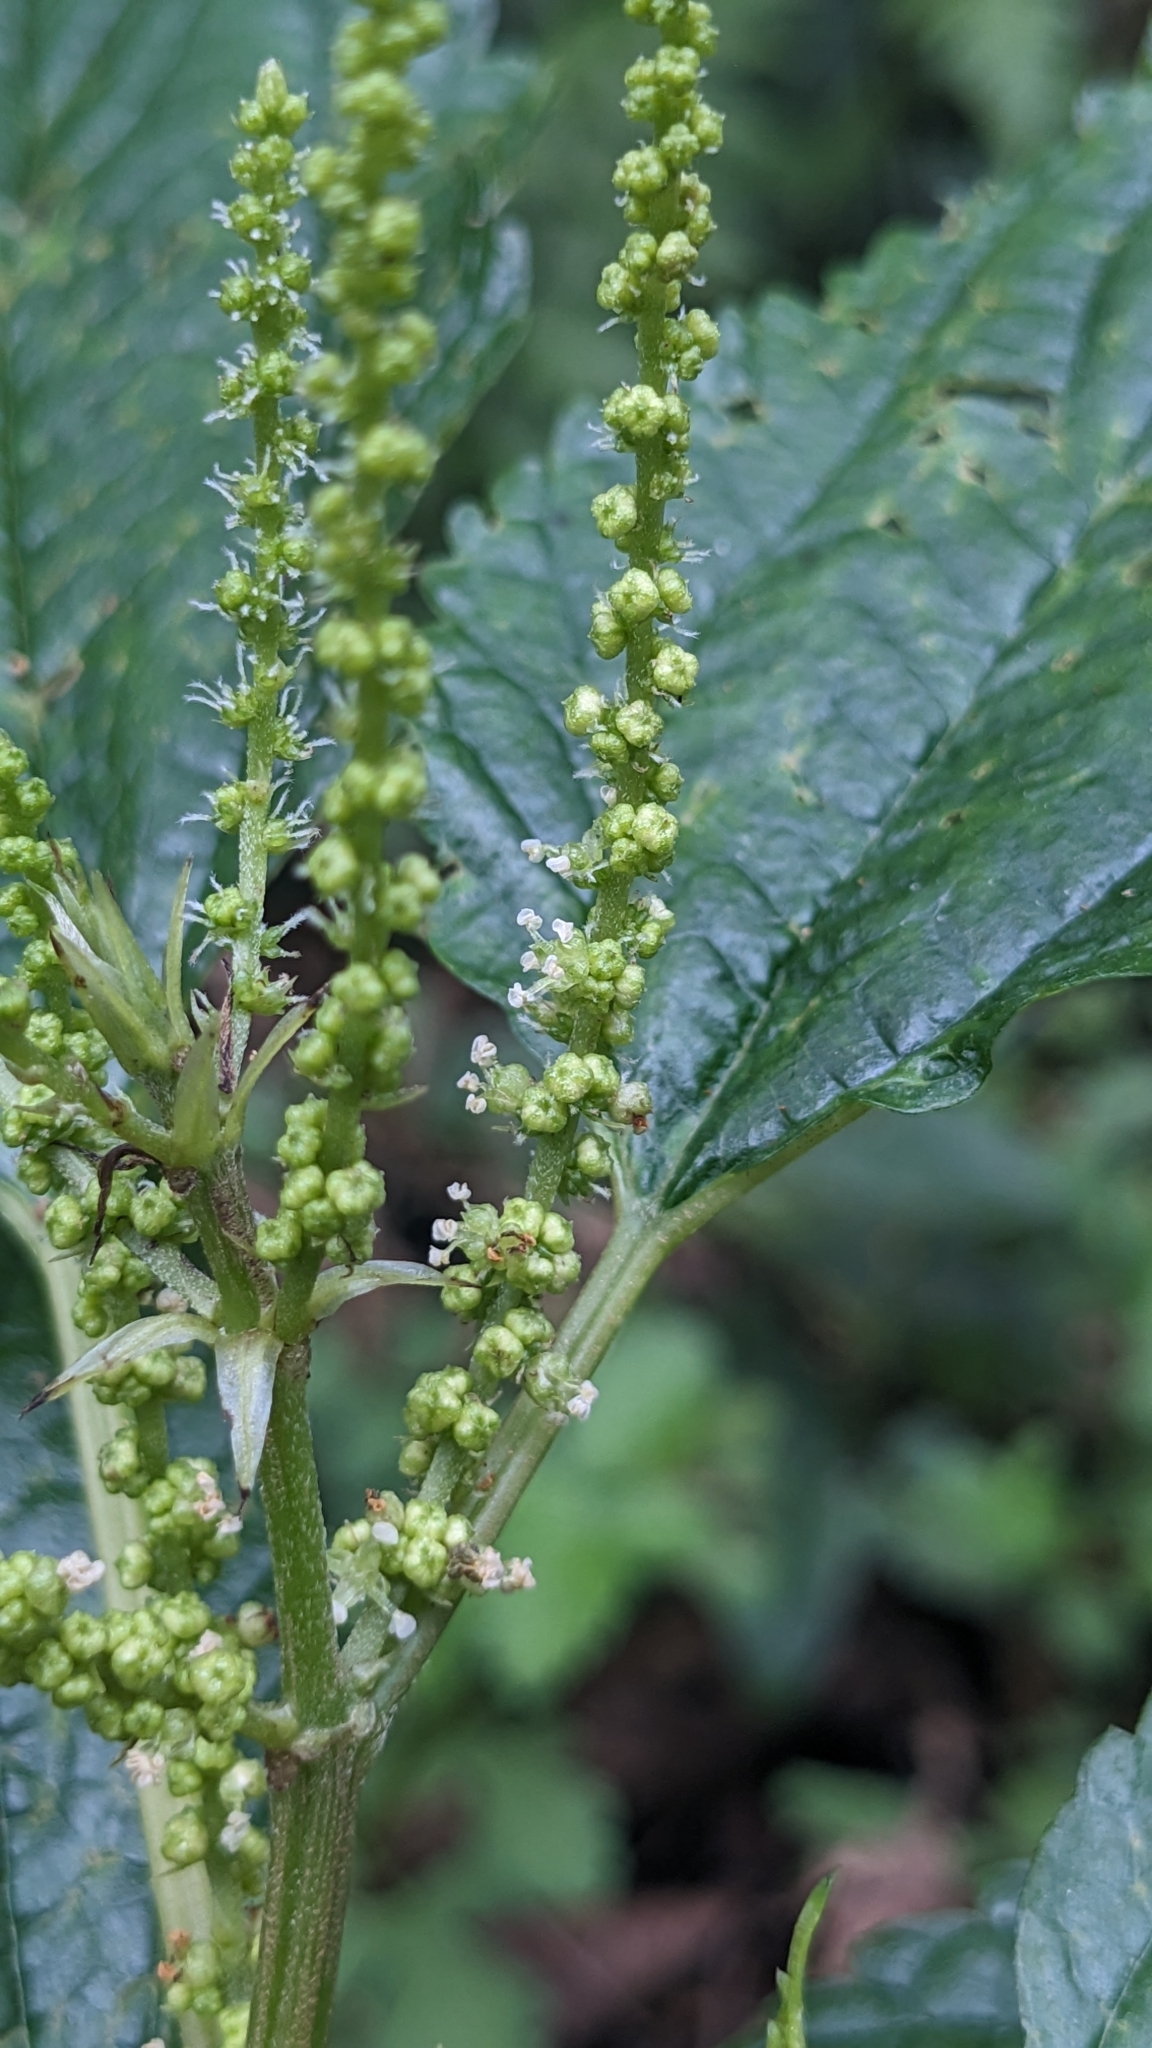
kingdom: Plantae
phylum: Tracheophyta
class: Magnoliopsida
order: Rosales
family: Urticaceae
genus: Boehmeria
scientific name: Boehmeria sieboldiana
